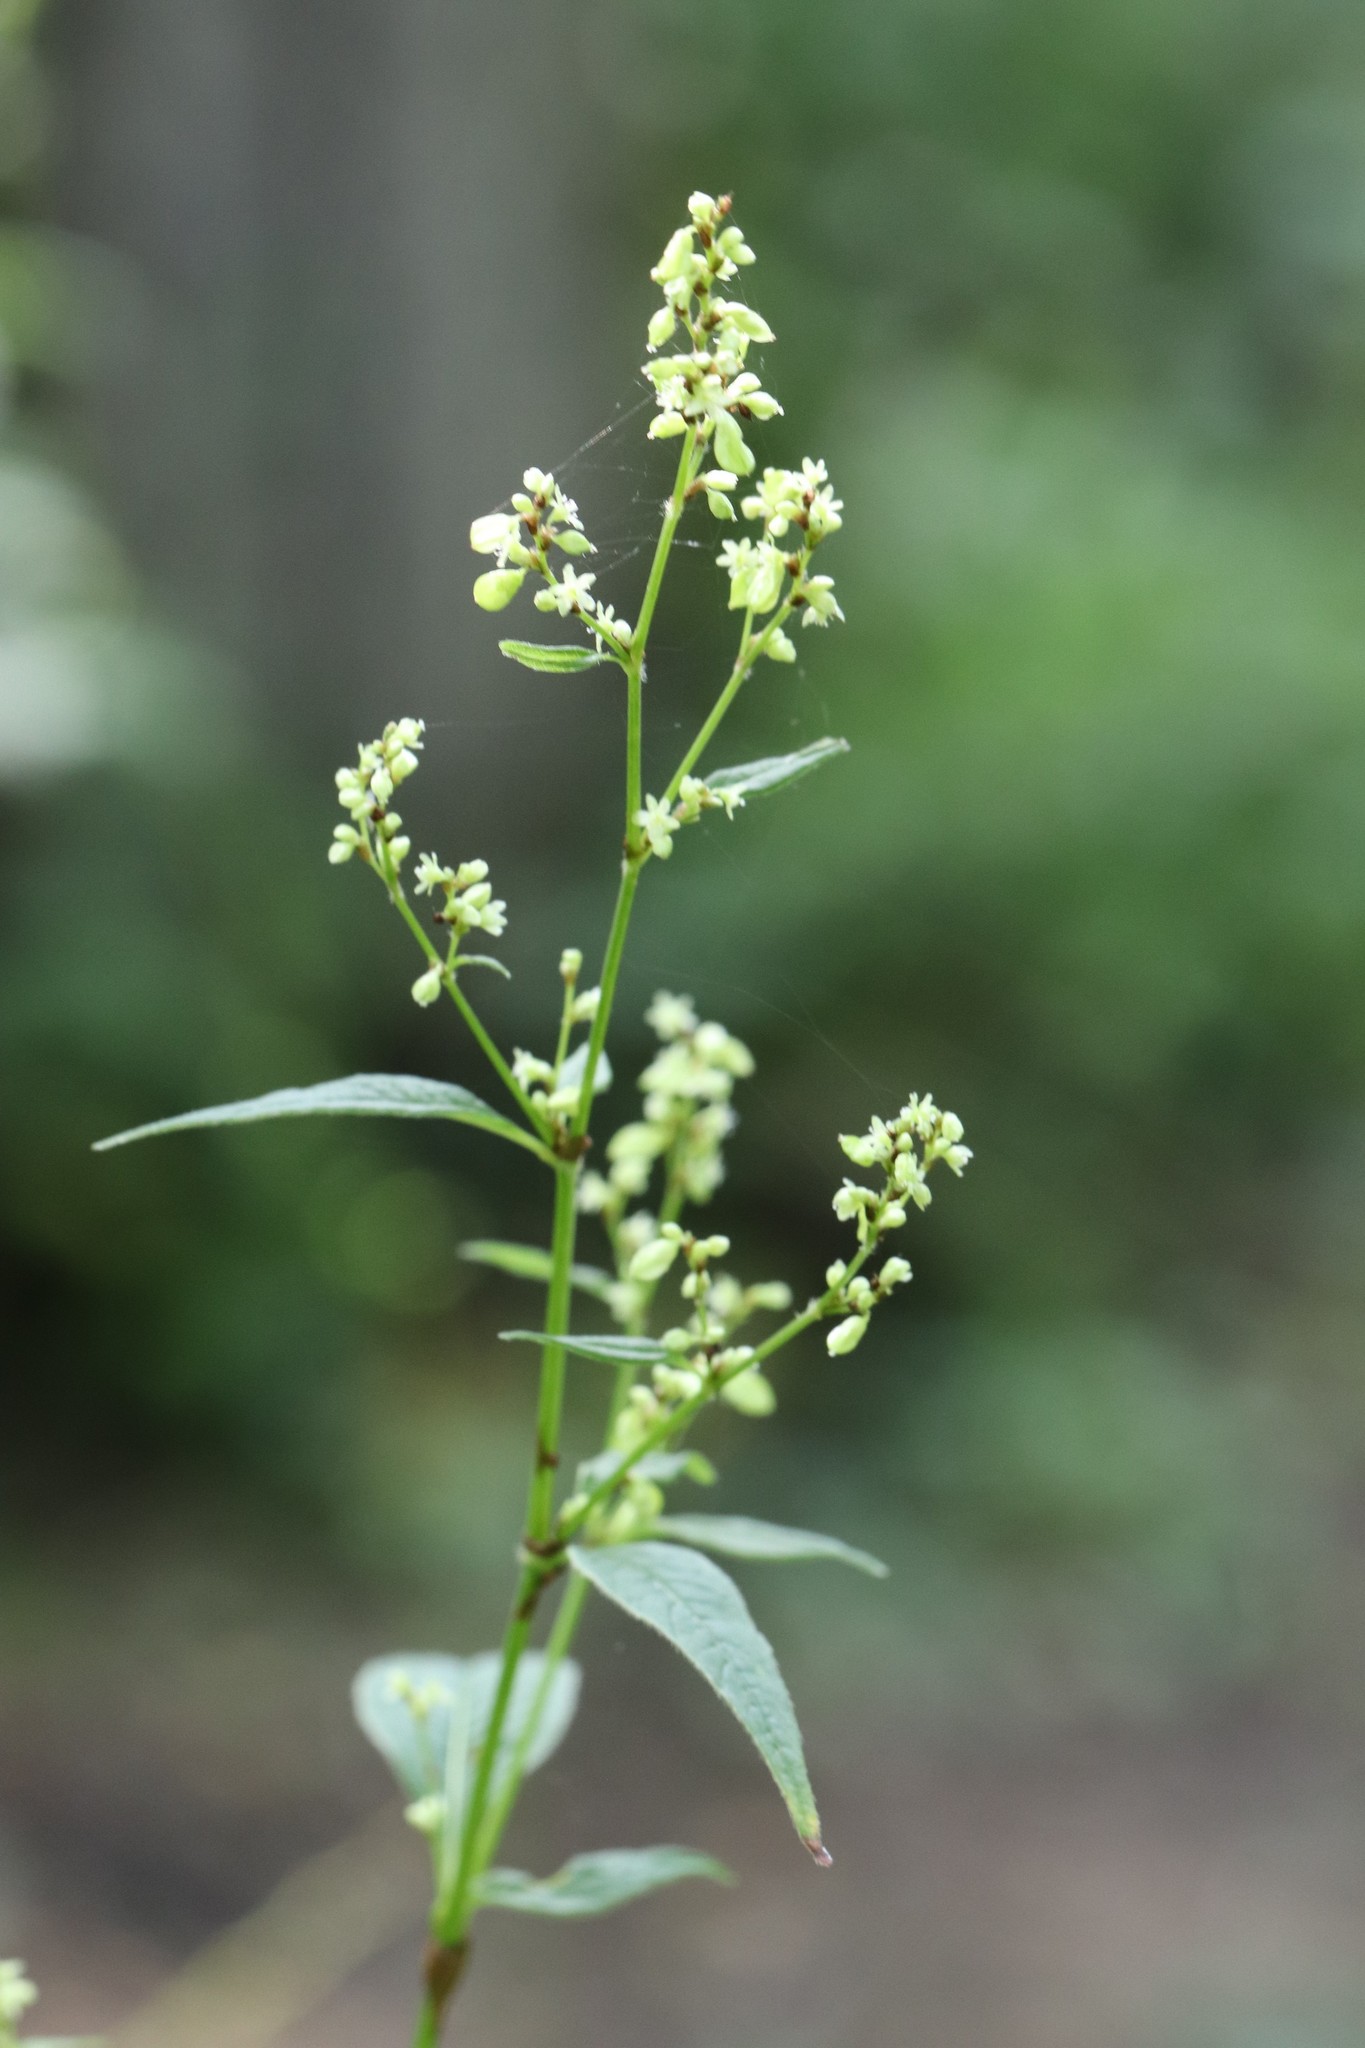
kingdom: Plantae
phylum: Tracheophyta
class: Magnoliopsida
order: Caryophyllales
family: Polygonaceae
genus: Koenigia
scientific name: Koenigia limosa
